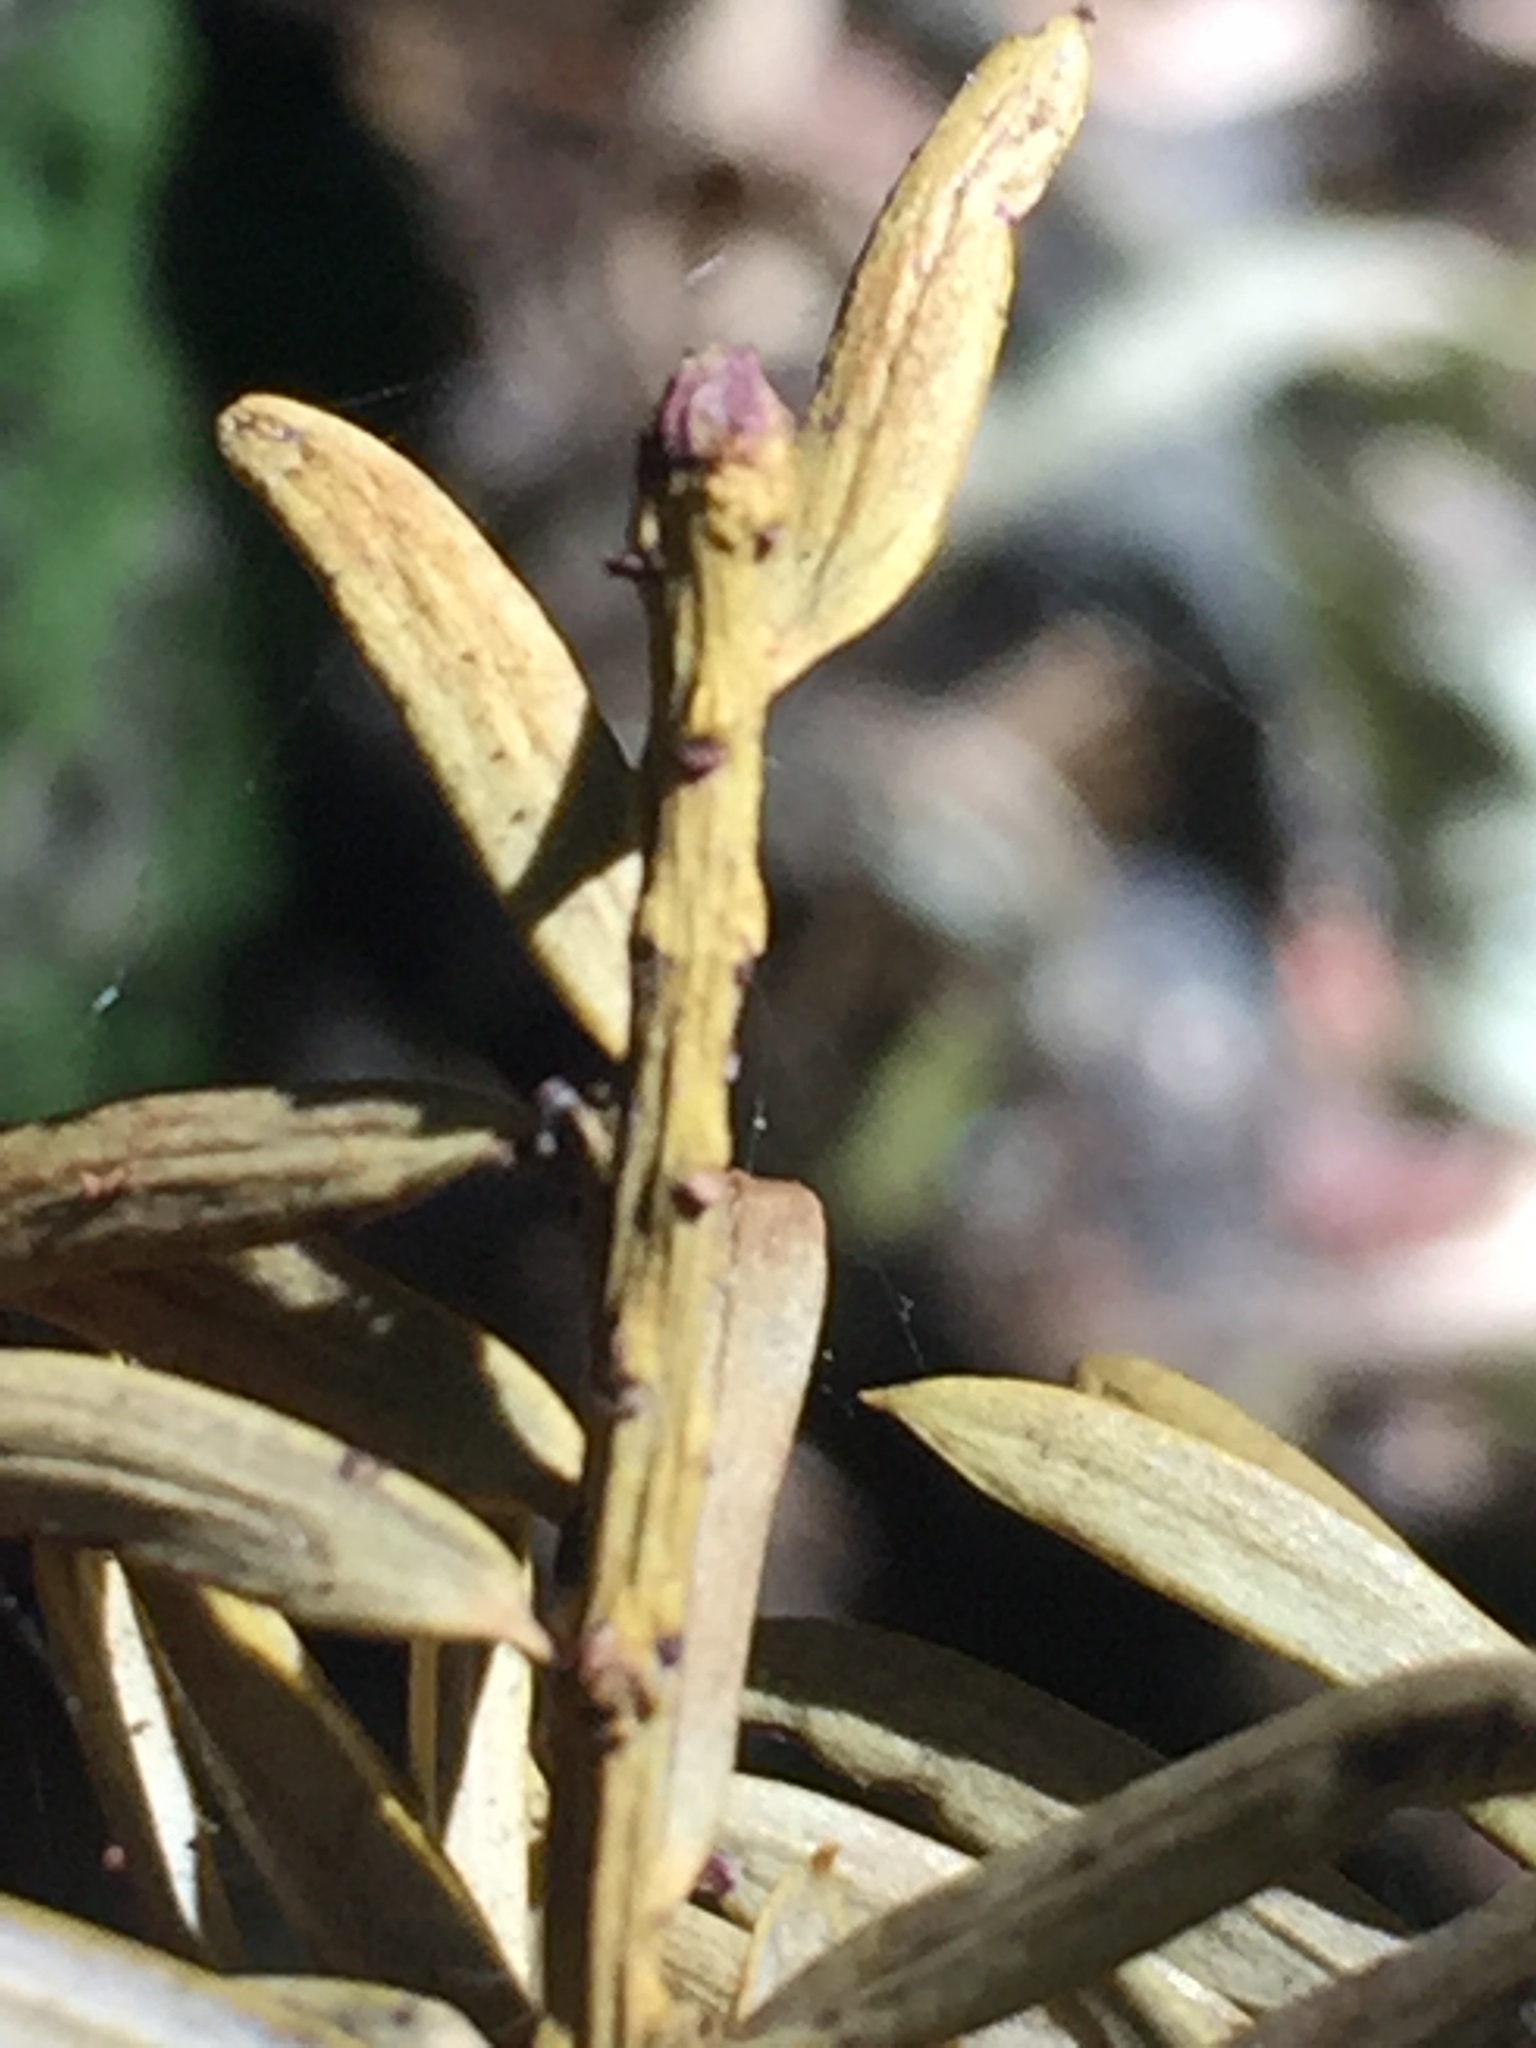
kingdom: Plantae
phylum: Tracheophyta
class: Pinopsida
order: Pinales
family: Podocarpaceae
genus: Podocarpus
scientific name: Podocarpus laetus
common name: Hall's totara
